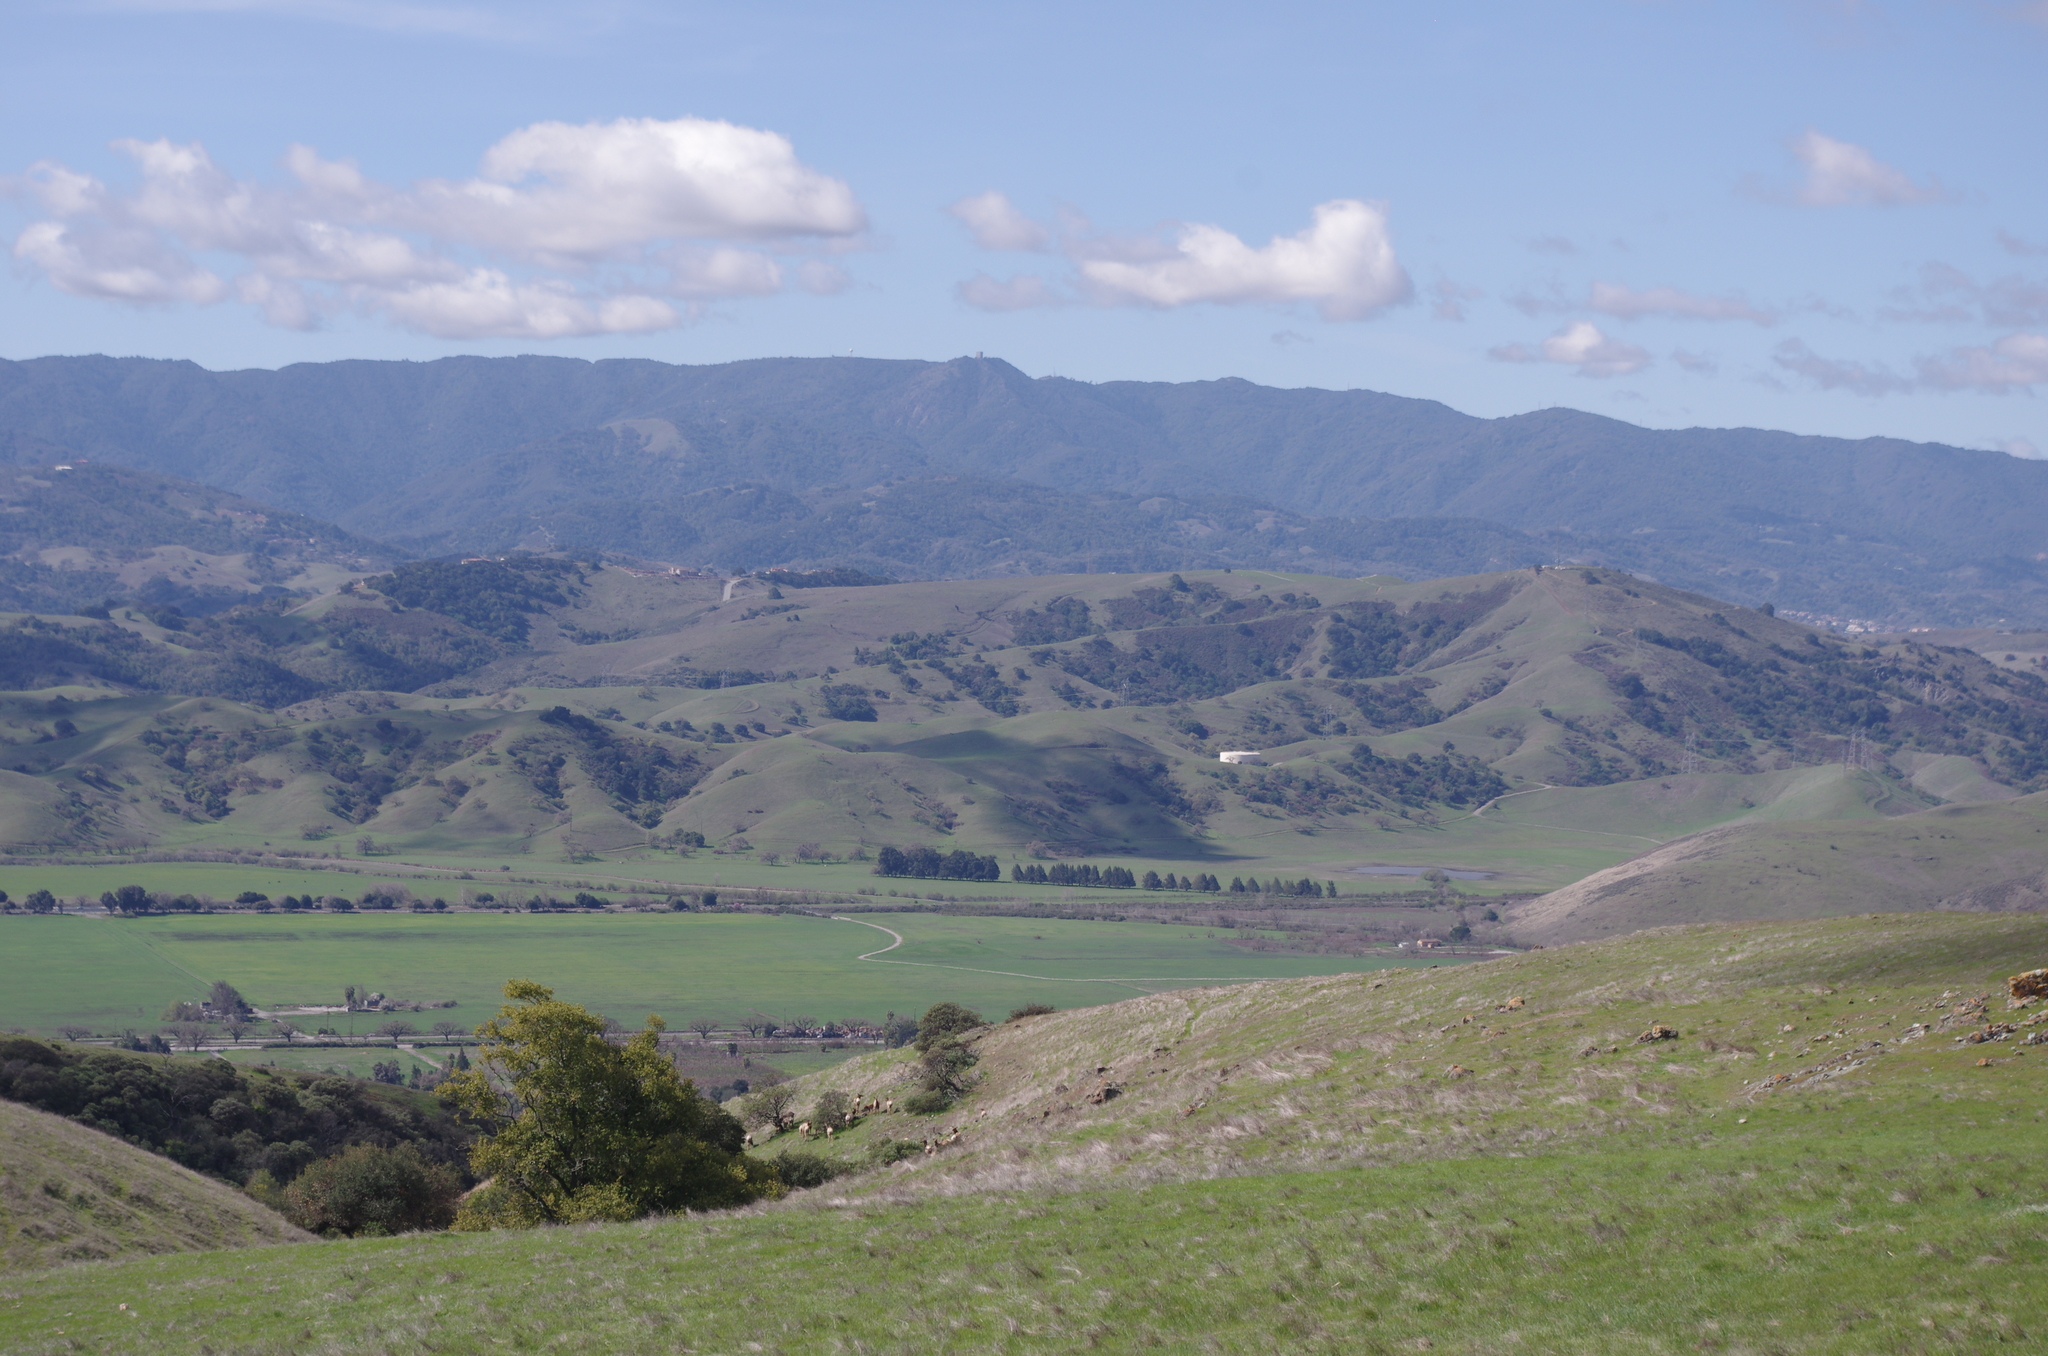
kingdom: Animalia
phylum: Chordata
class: Mammalia
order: Artiodactyla
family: Cervidae
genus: Cervus
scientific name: Cervus elaphus
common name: Red deer
